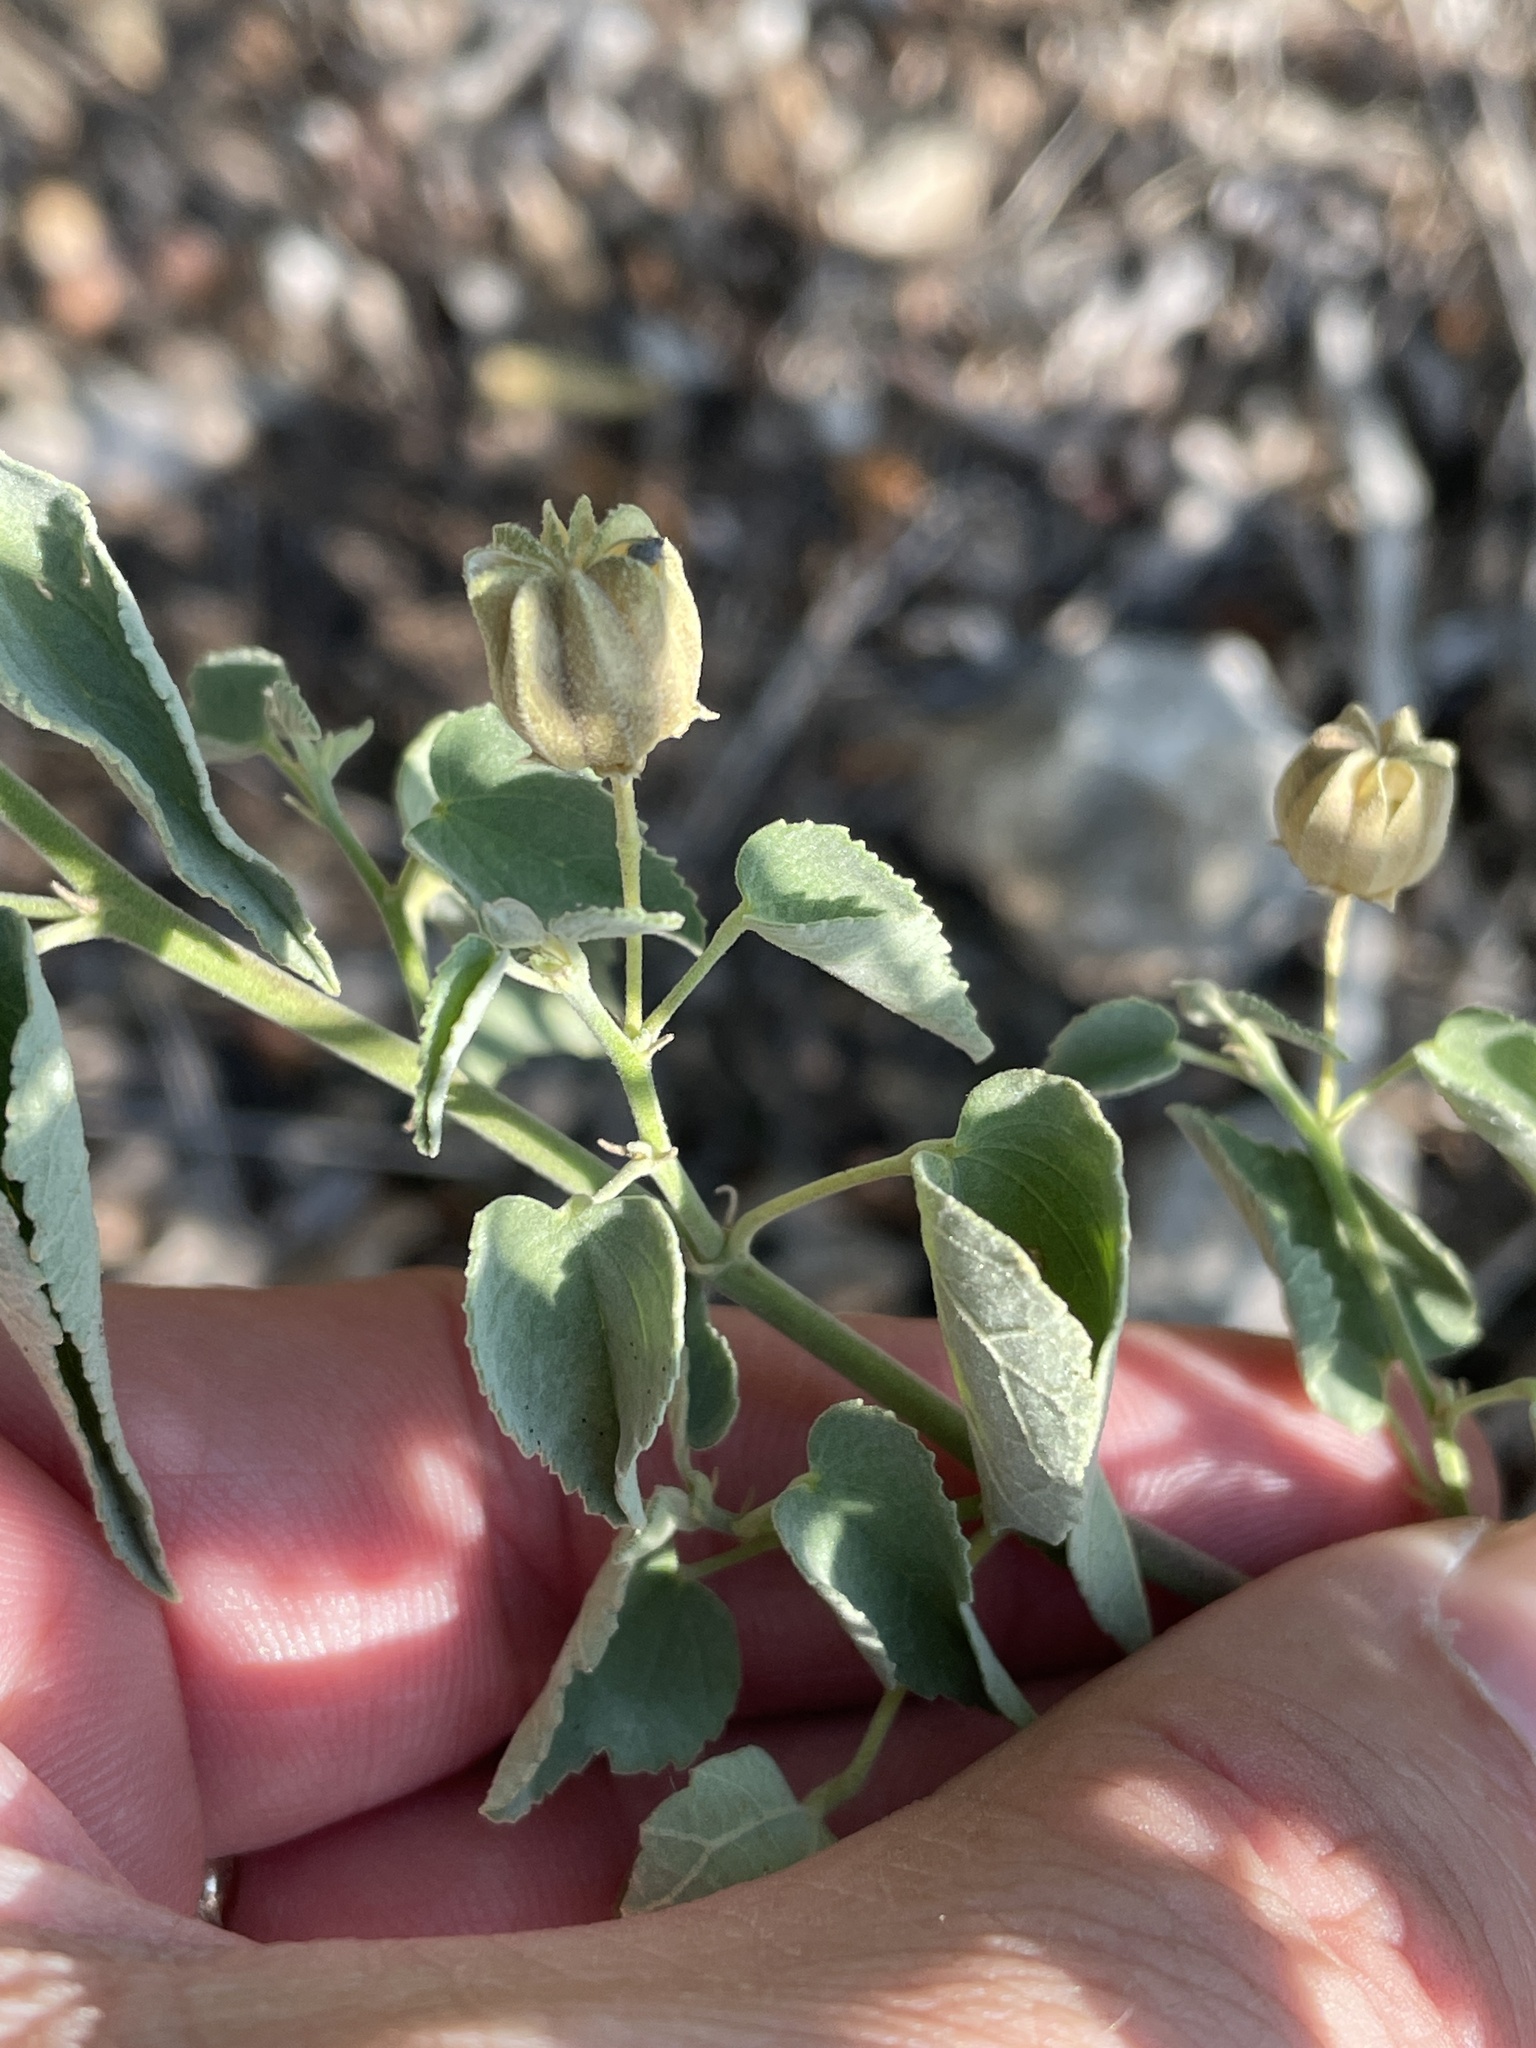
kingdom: Plantae
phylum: Tracheophyta
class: Magnoliopsida
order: Malvales
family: Malvaceae
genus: Abutilon
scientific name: Abutilon fruticosum
